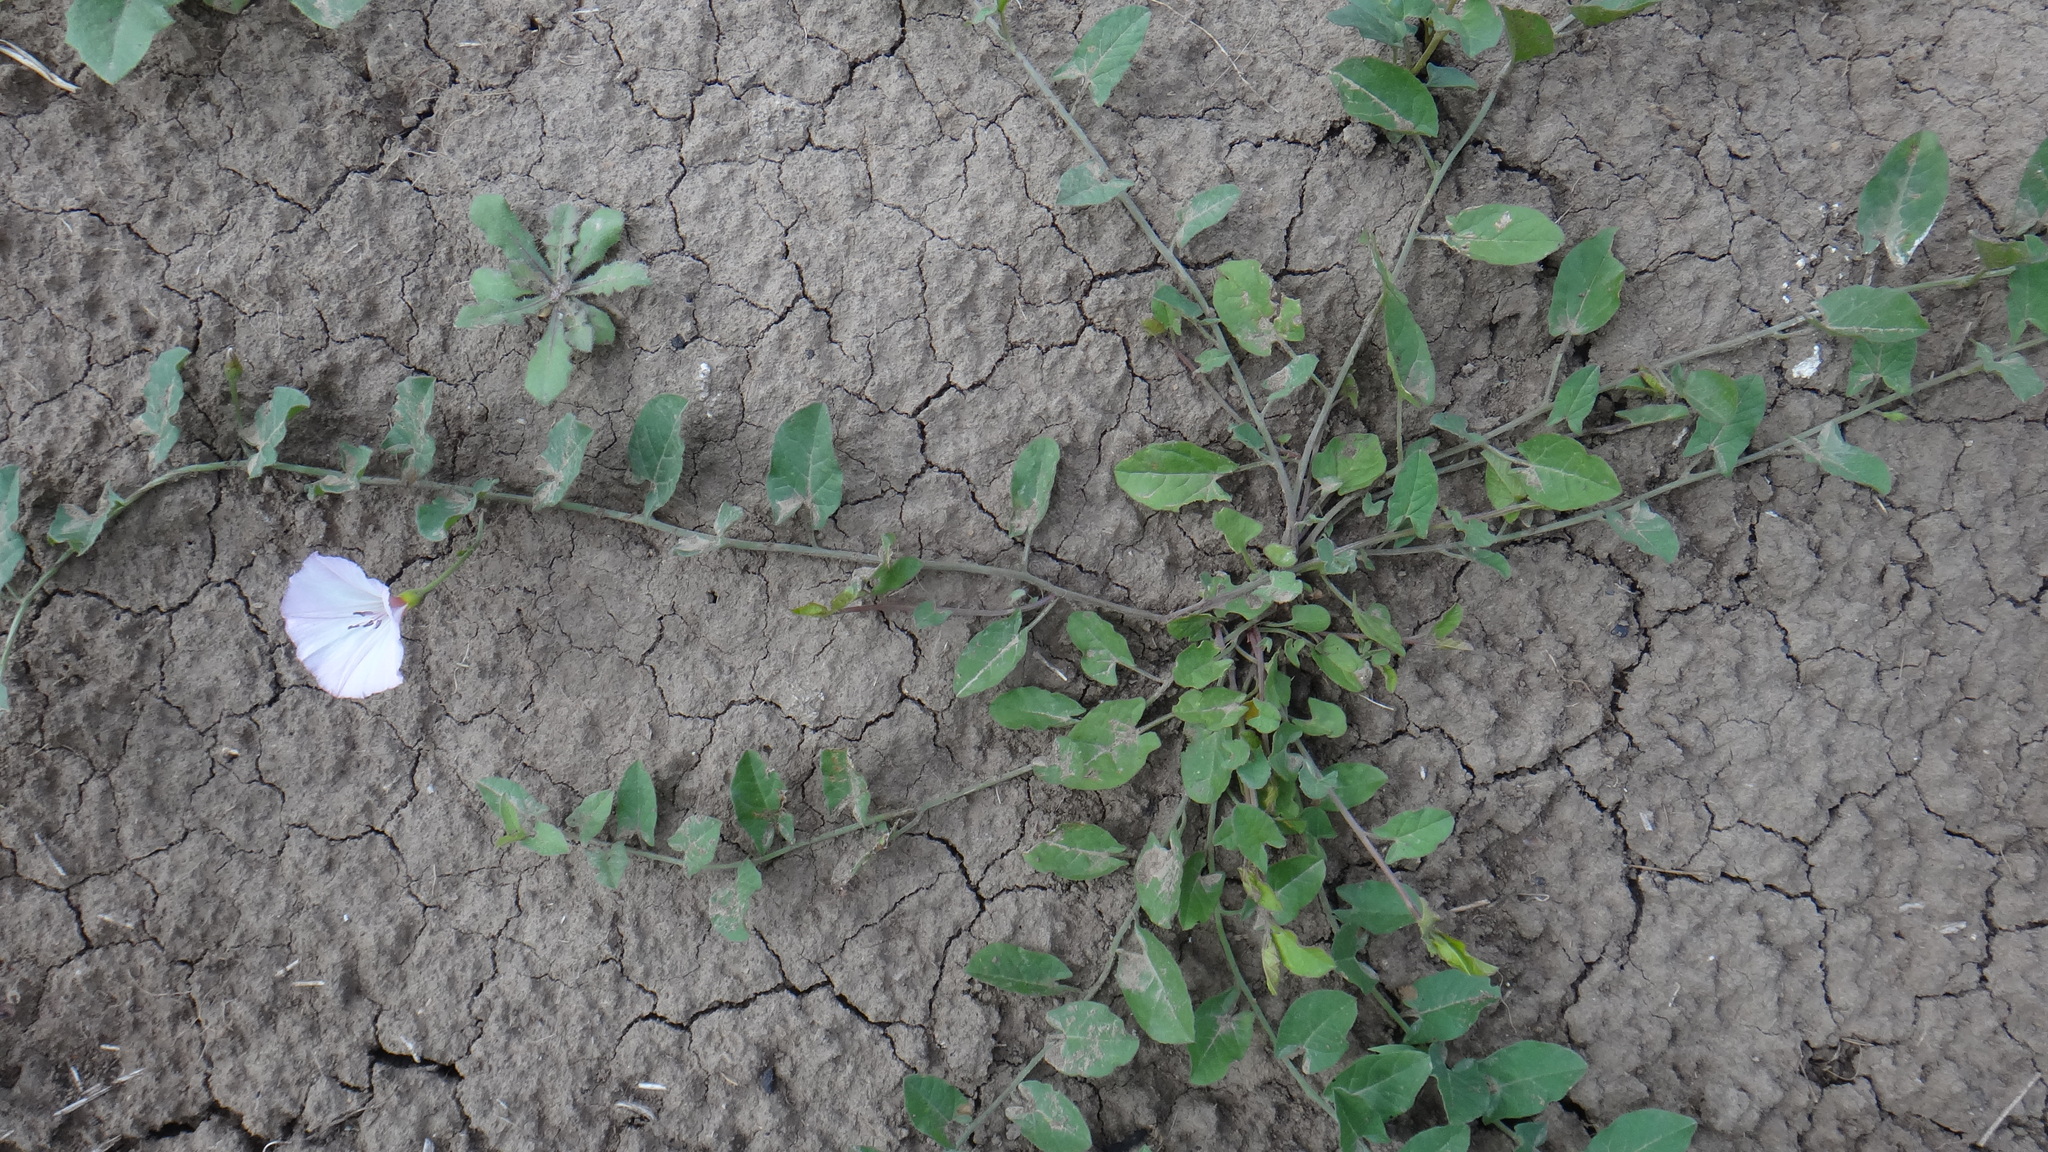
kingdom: Plantae
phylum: Tracheophyta
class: Magnoliopsida
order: Solanales
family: Convolvulaceae
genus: Convolvulus
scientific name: Convolvulus arvensis
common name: Field bindweed
